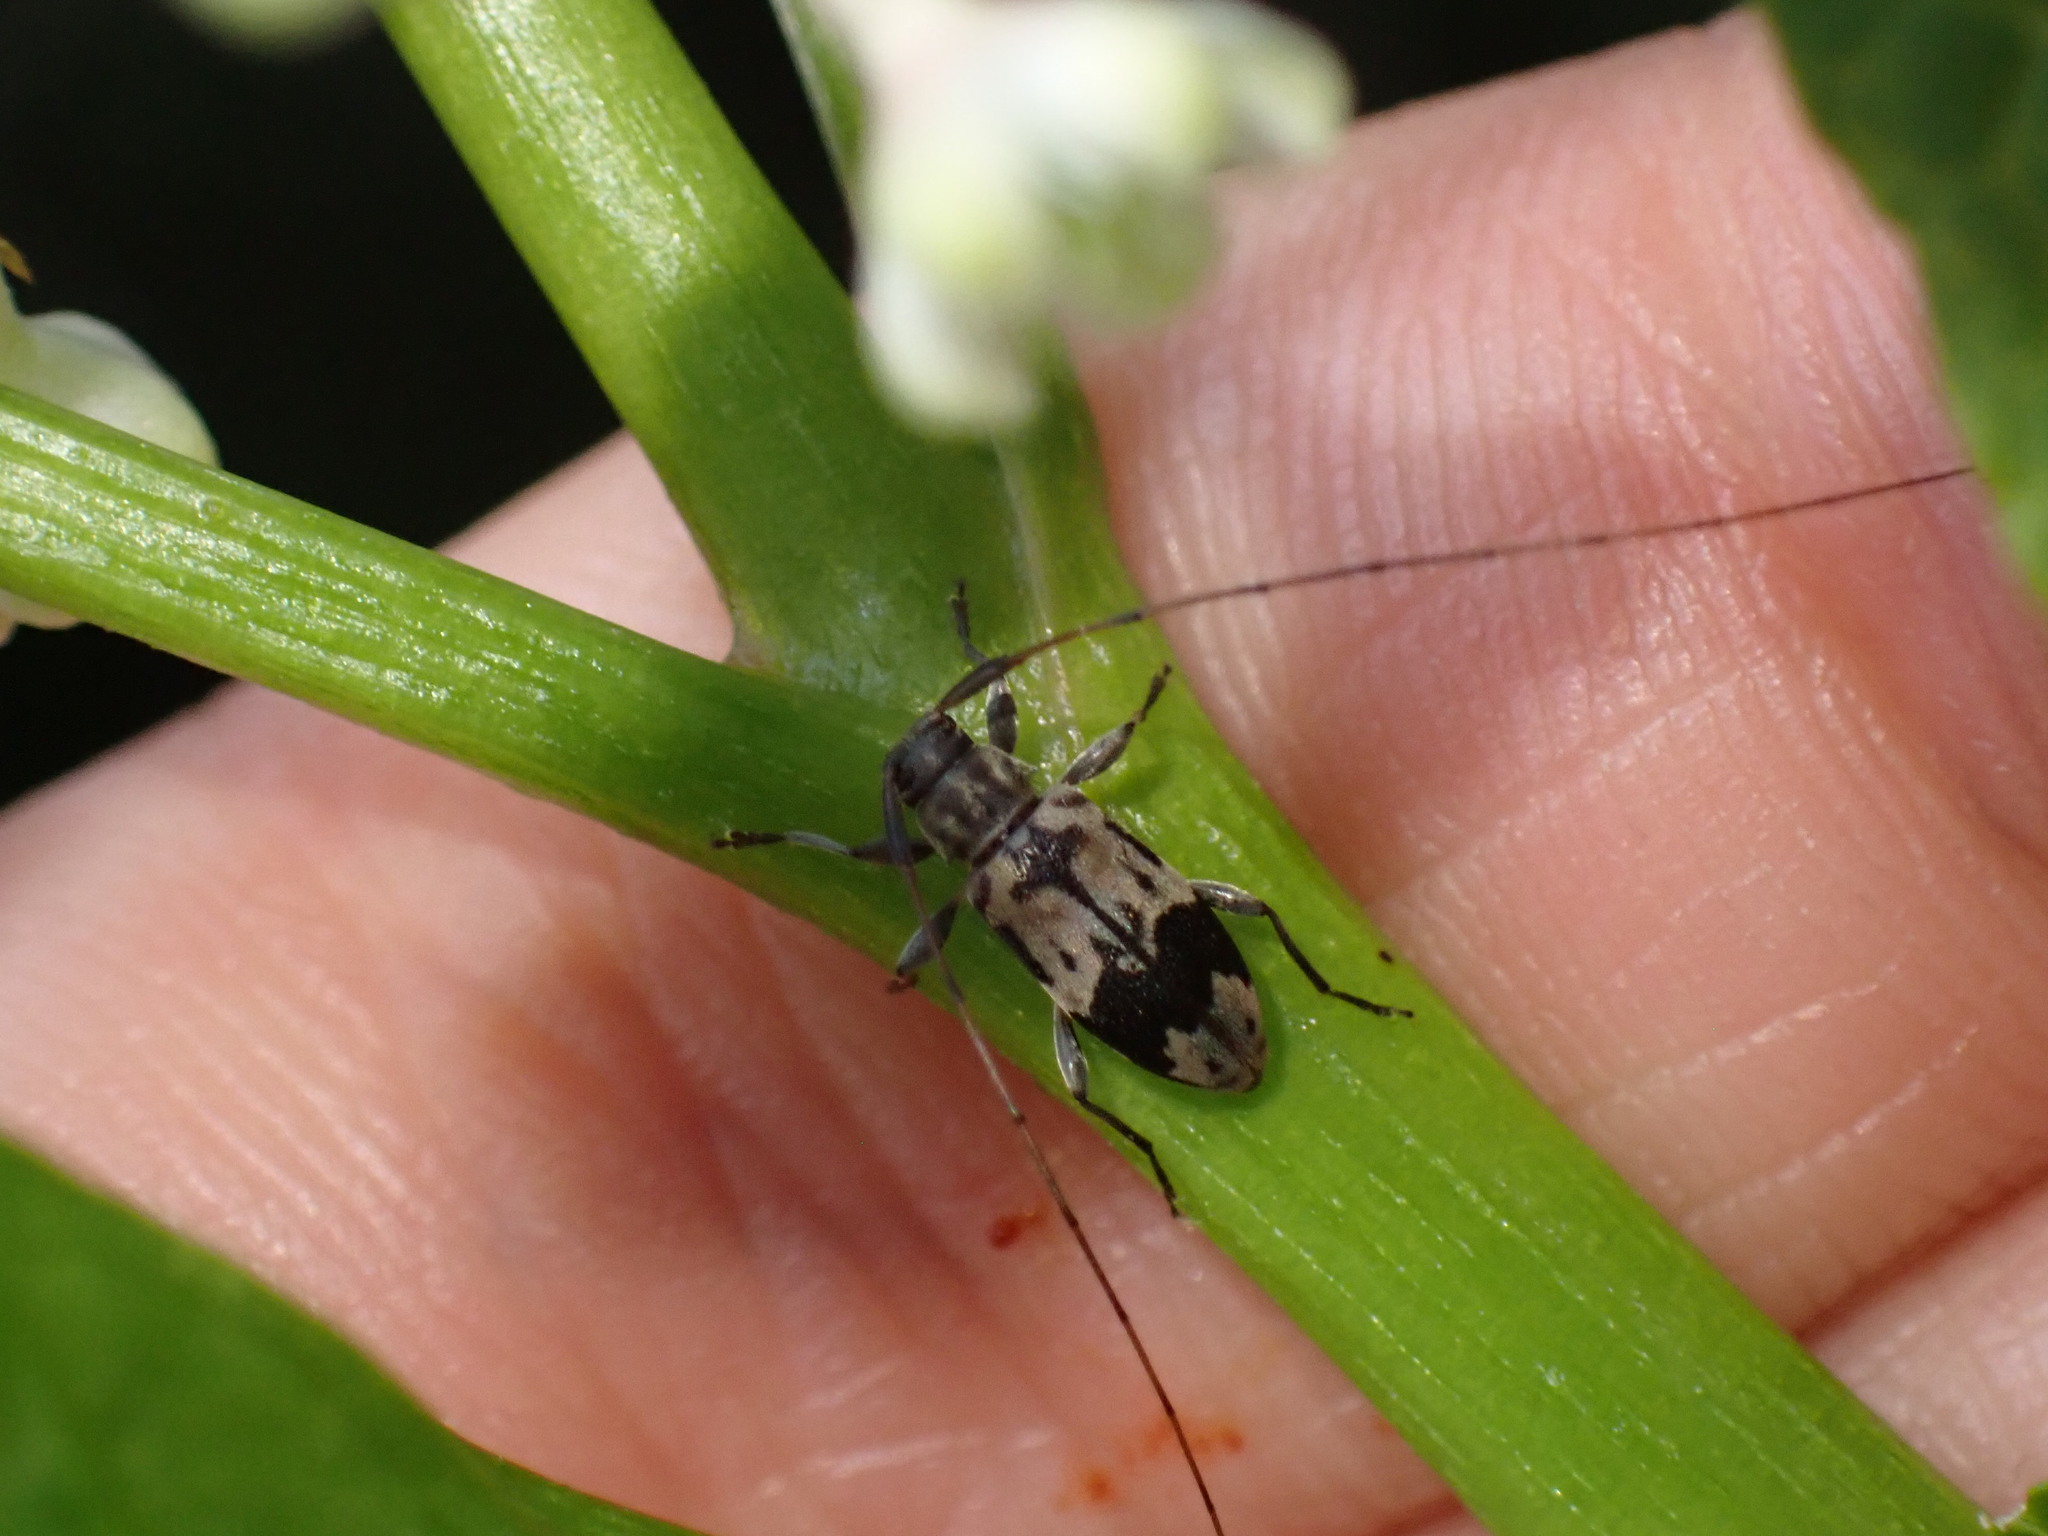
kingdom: Animalia
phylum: Arthropoda
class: Insecta
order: Coleoptera
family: Cerambycidae
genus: Urgleptes
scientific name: Urgleptes querci
